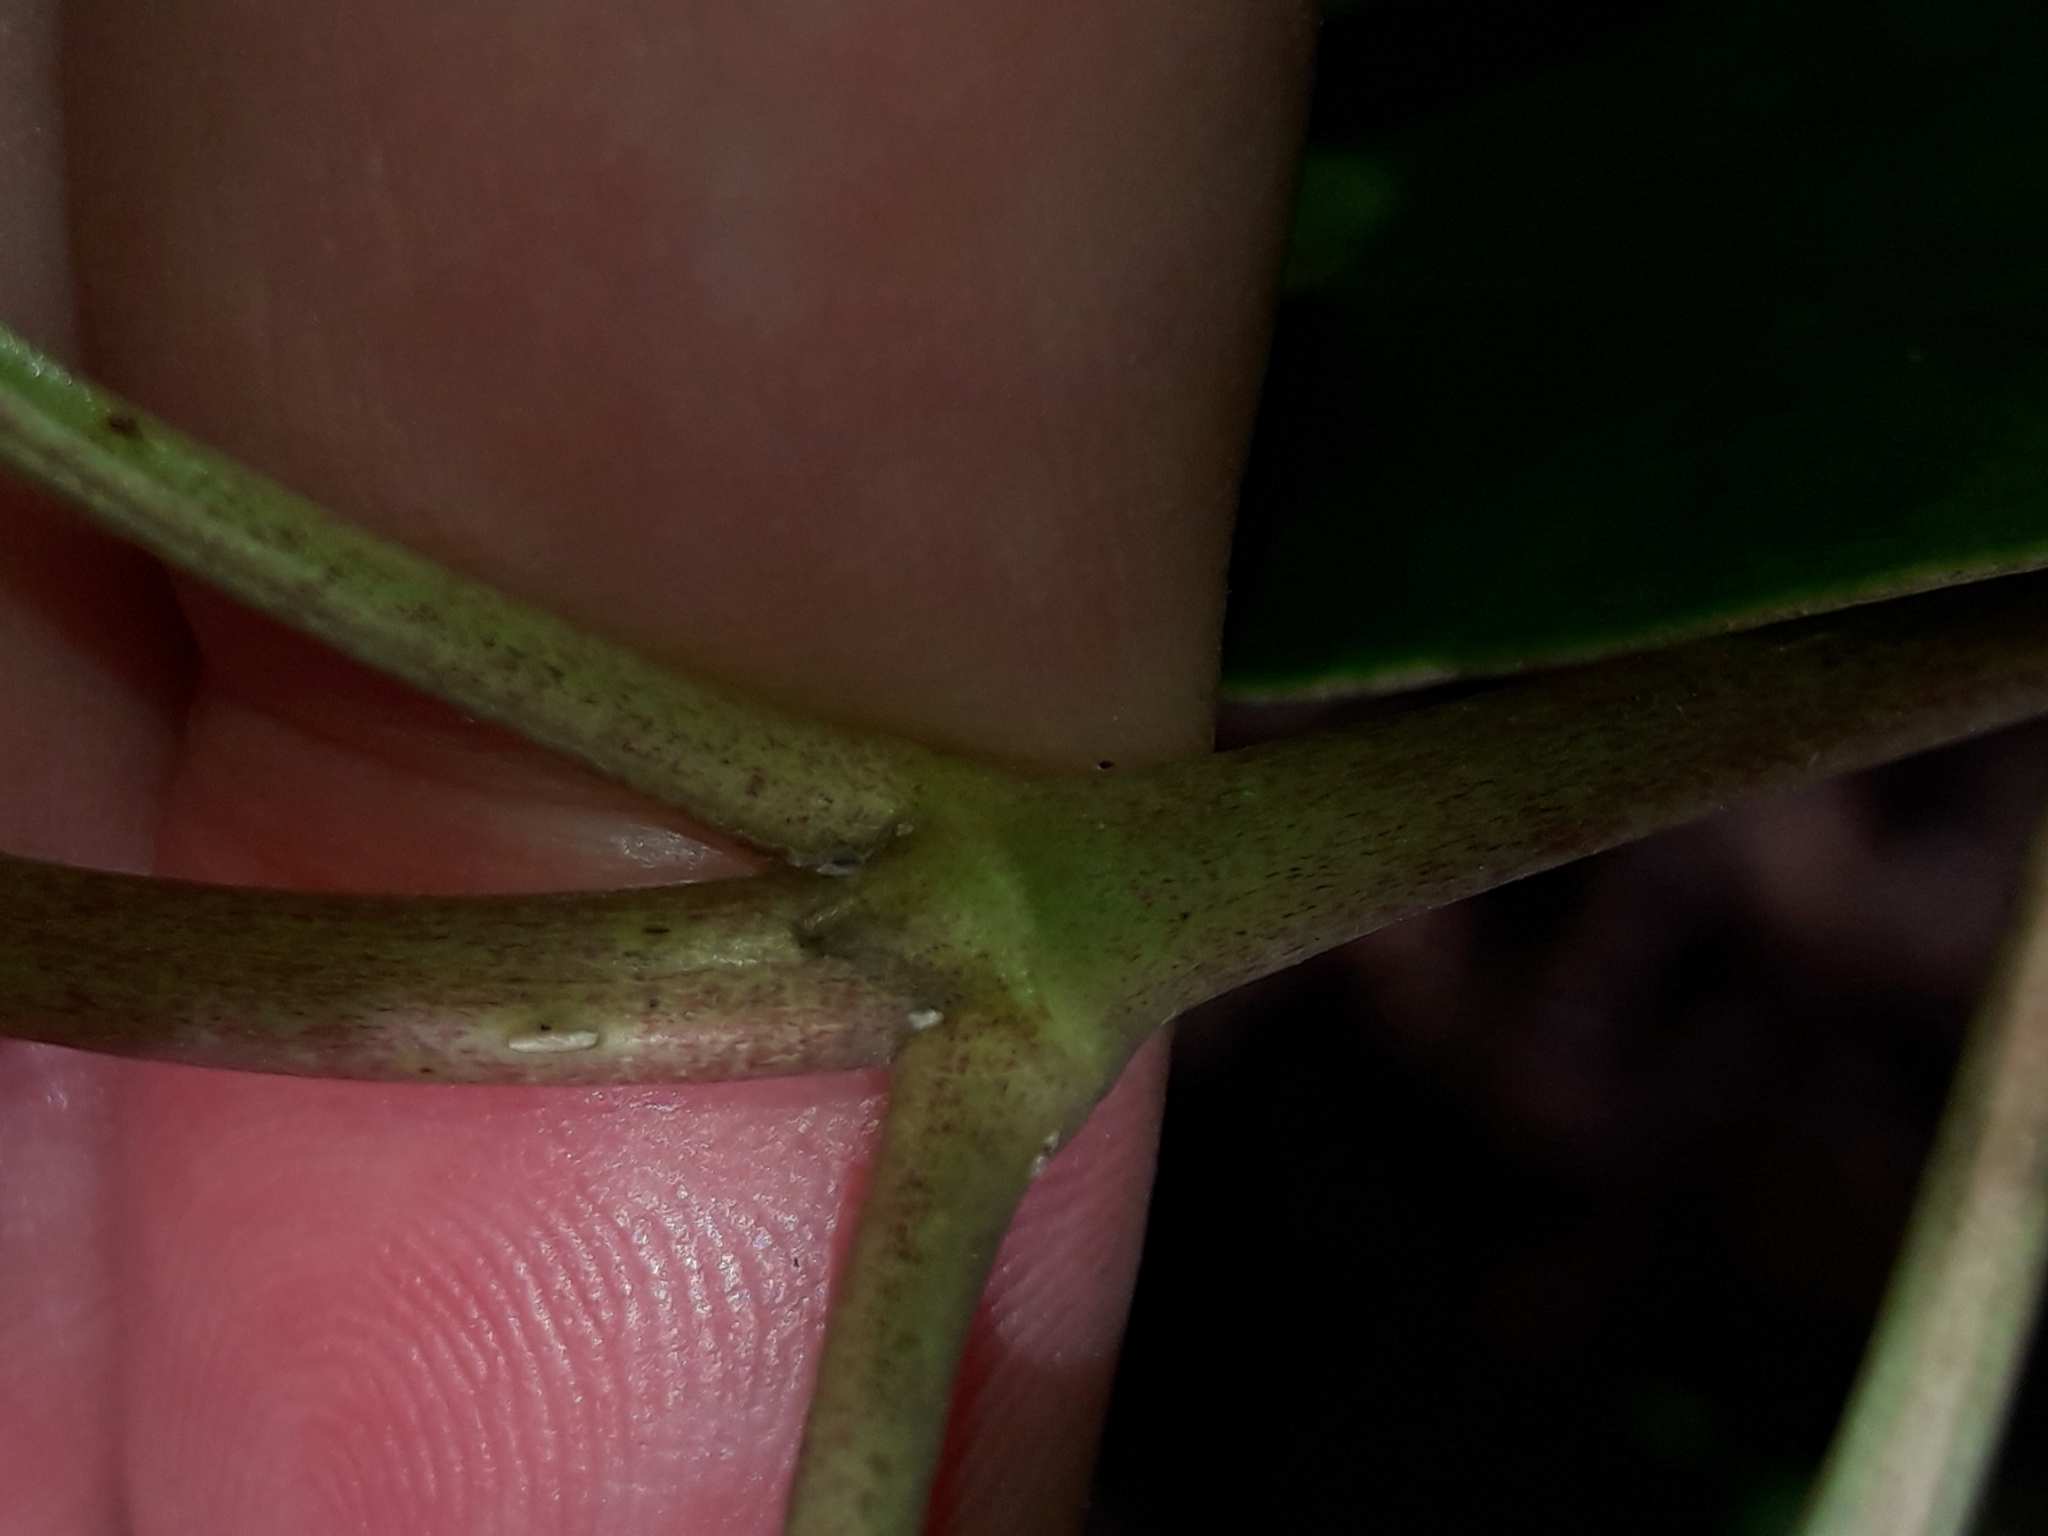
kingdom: Plantae
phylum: Tracheophyta
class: Magnoliopsida
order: Gentianales
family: Rubiaceae
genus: Coprosma
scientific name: Coprosma lucida
